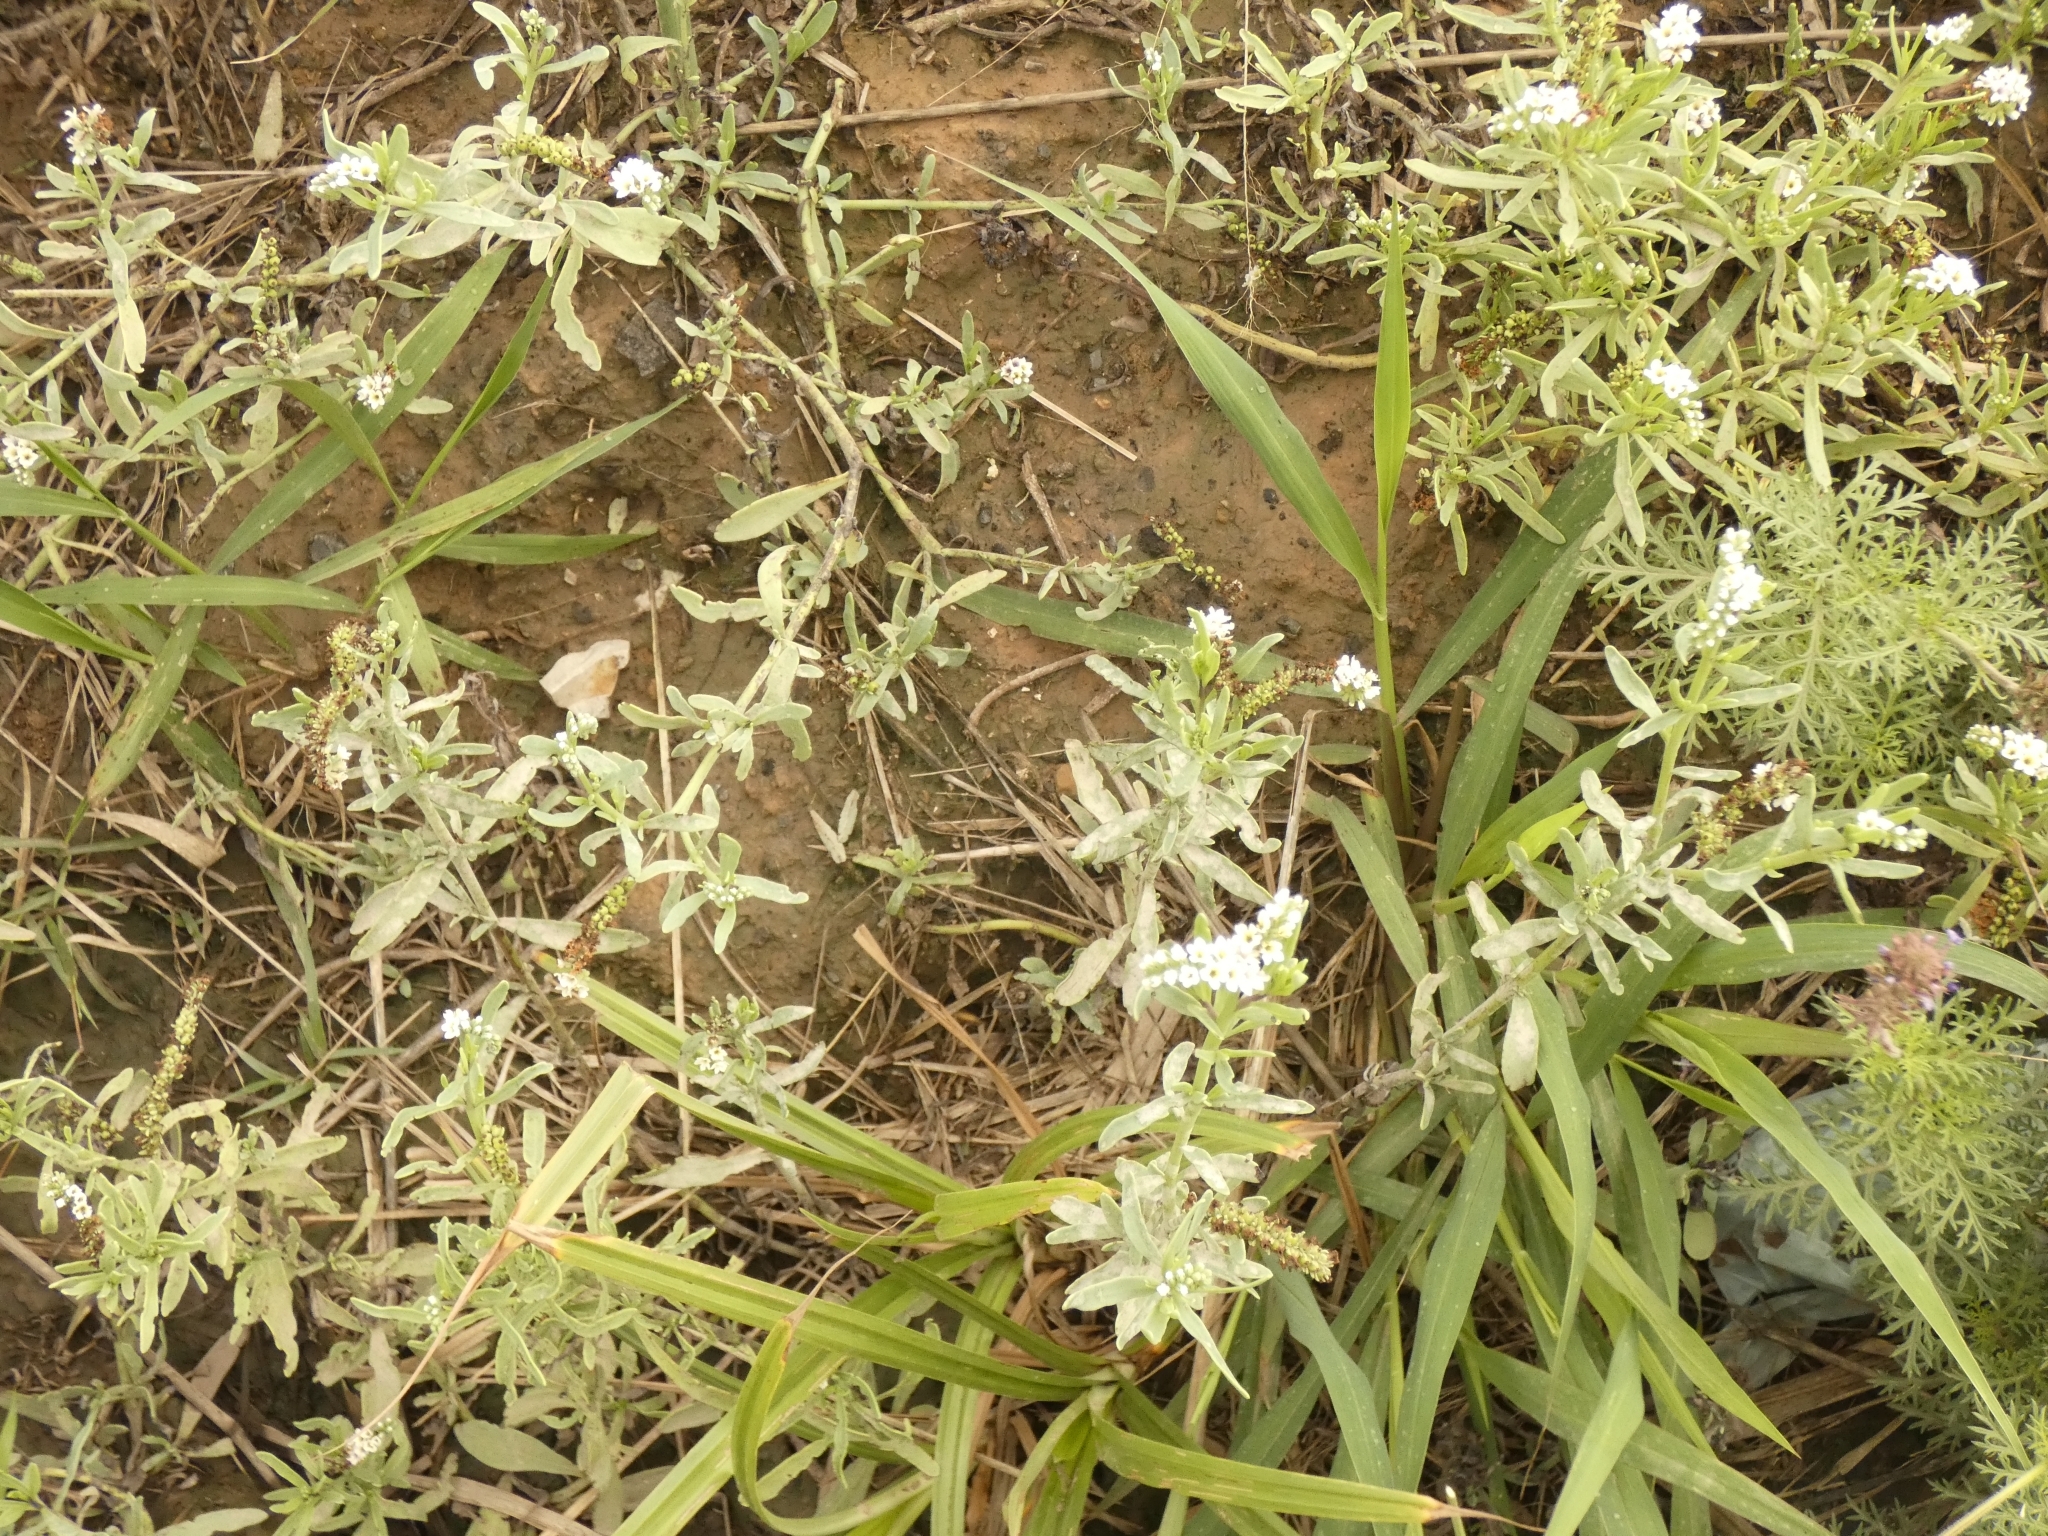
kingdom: Plantae
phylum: Tracheophyta
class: Magnoliopsida
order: Boraginales
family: Heliotropiaceae
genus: Heliotropium
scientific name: Heliotropium curassavicum
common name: Seaside heliotrope
